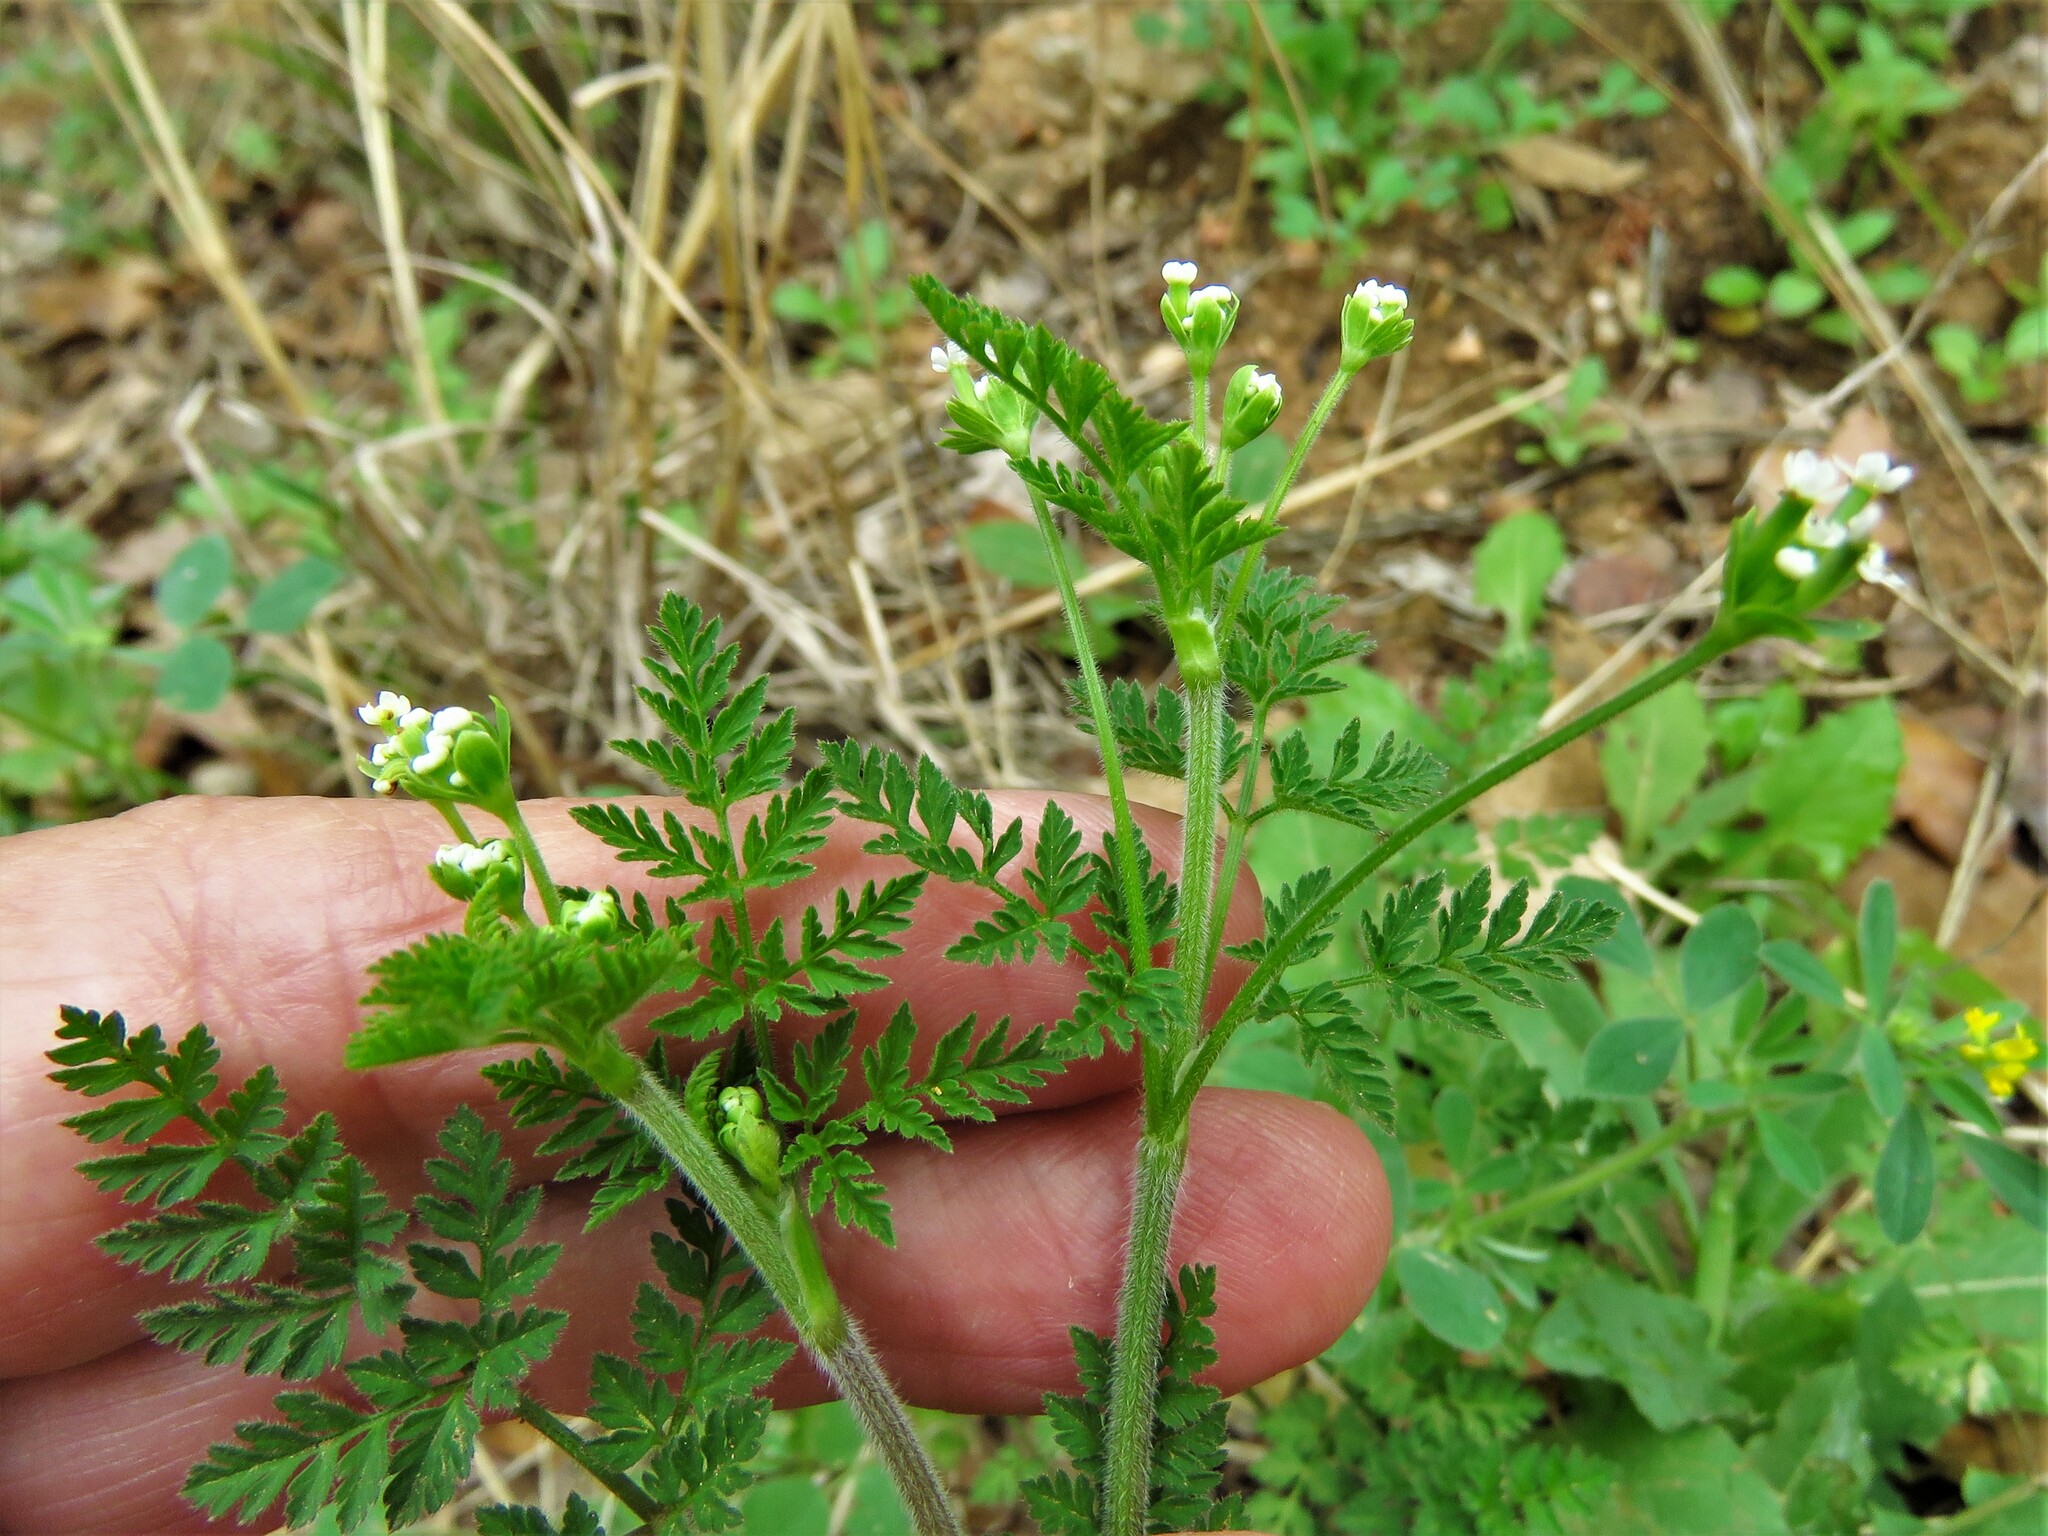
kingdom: Plantae
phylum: Tracheophyta
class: Magnoliopsida
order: Apiales
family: Apiaceae
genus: Chaerophyllum
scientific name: Chaerophyllum tainturieri
